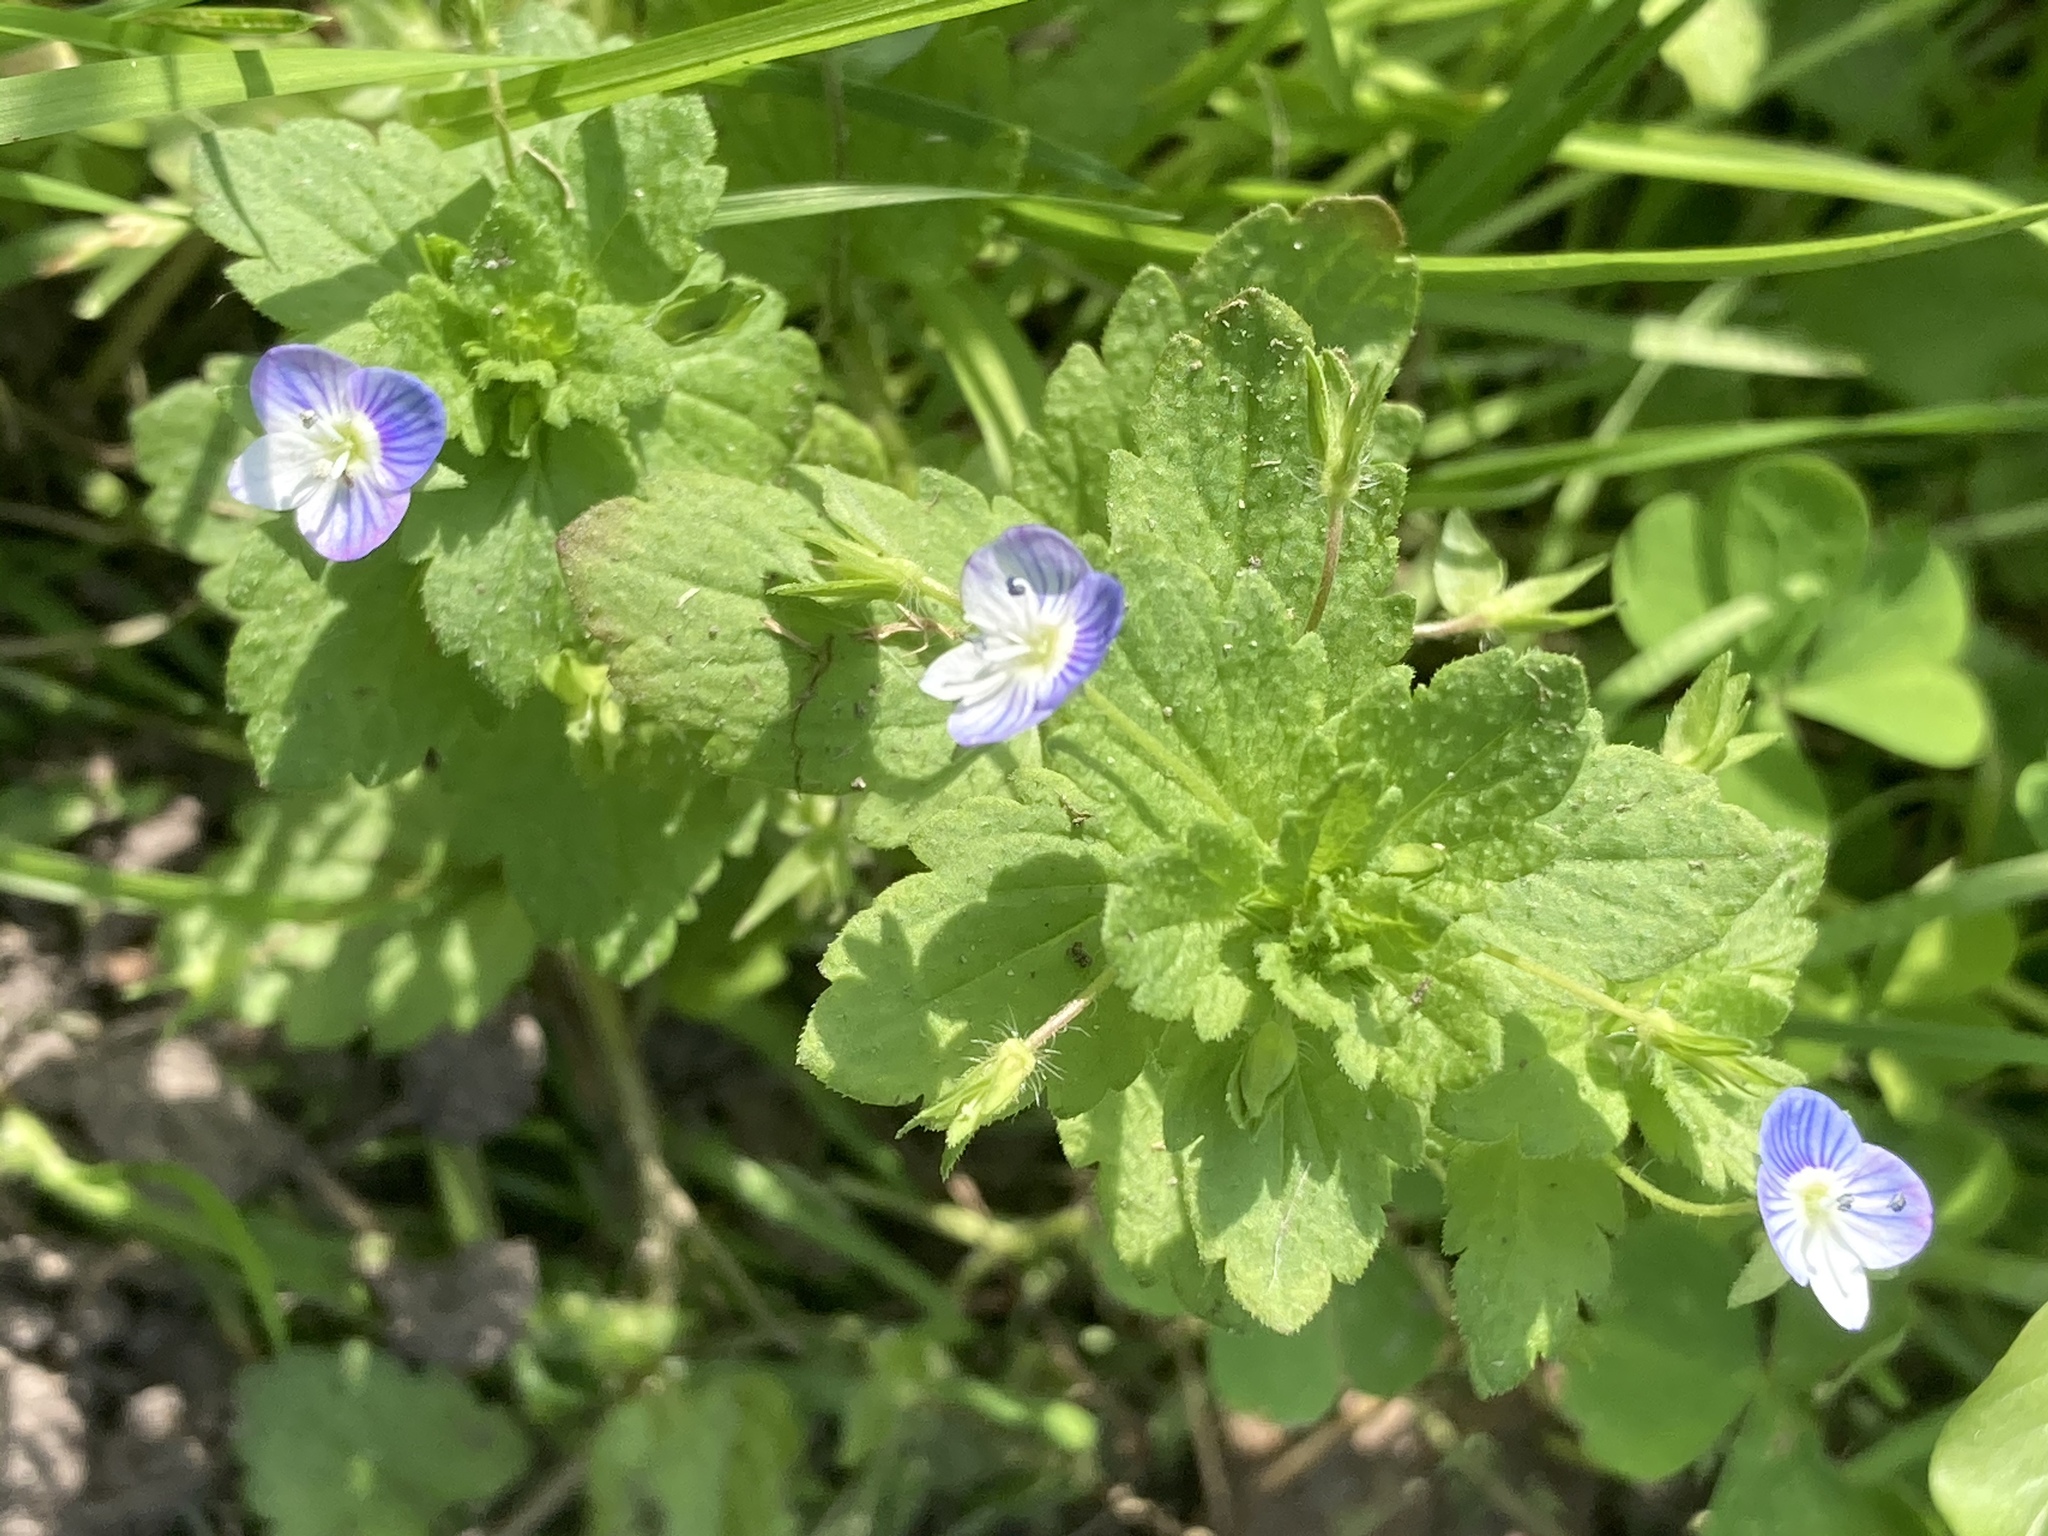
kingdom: Plantae
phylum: Tracheophyta
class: Magnoliopsida
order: Lamiales
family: Plantaginaceae
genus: Veronica
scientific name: Veronica persica
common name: Common field-speedwell
